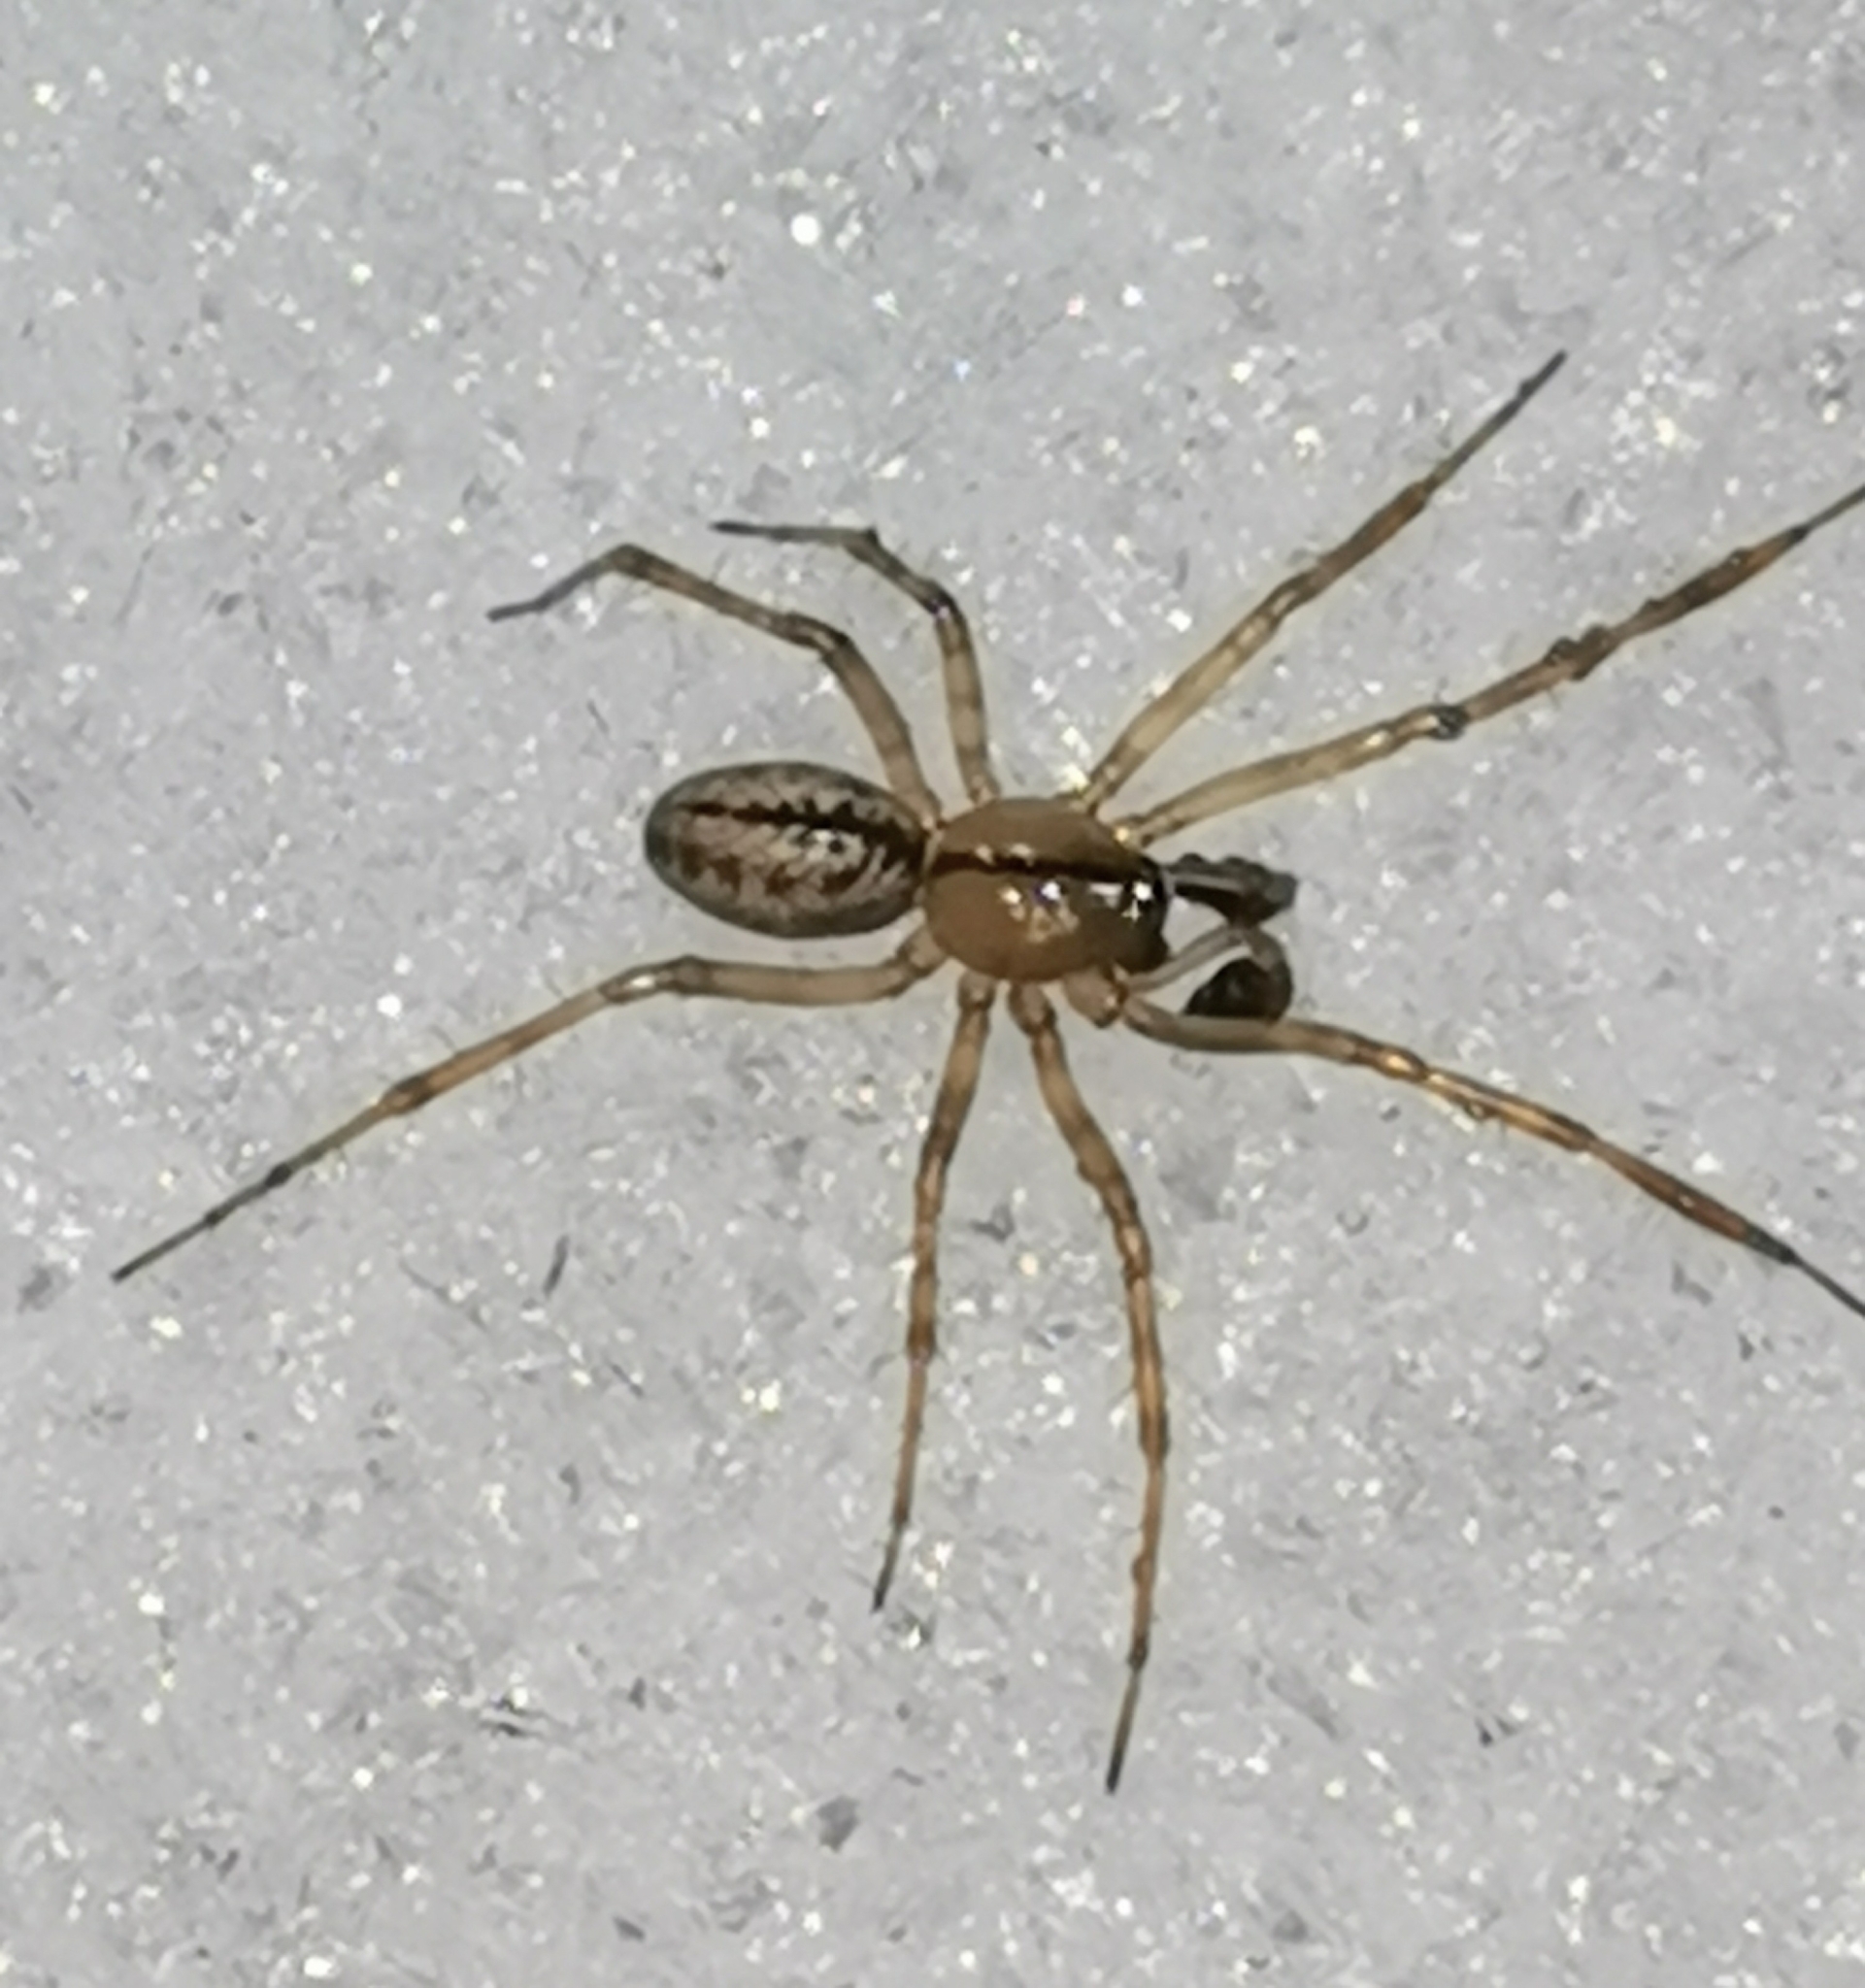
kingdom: Animalia
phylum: Arthropoda
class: Arachnida
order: Araneae
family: Linyphiidae
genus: Stemonyphantes
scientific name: Stemonyphantes lineatus
